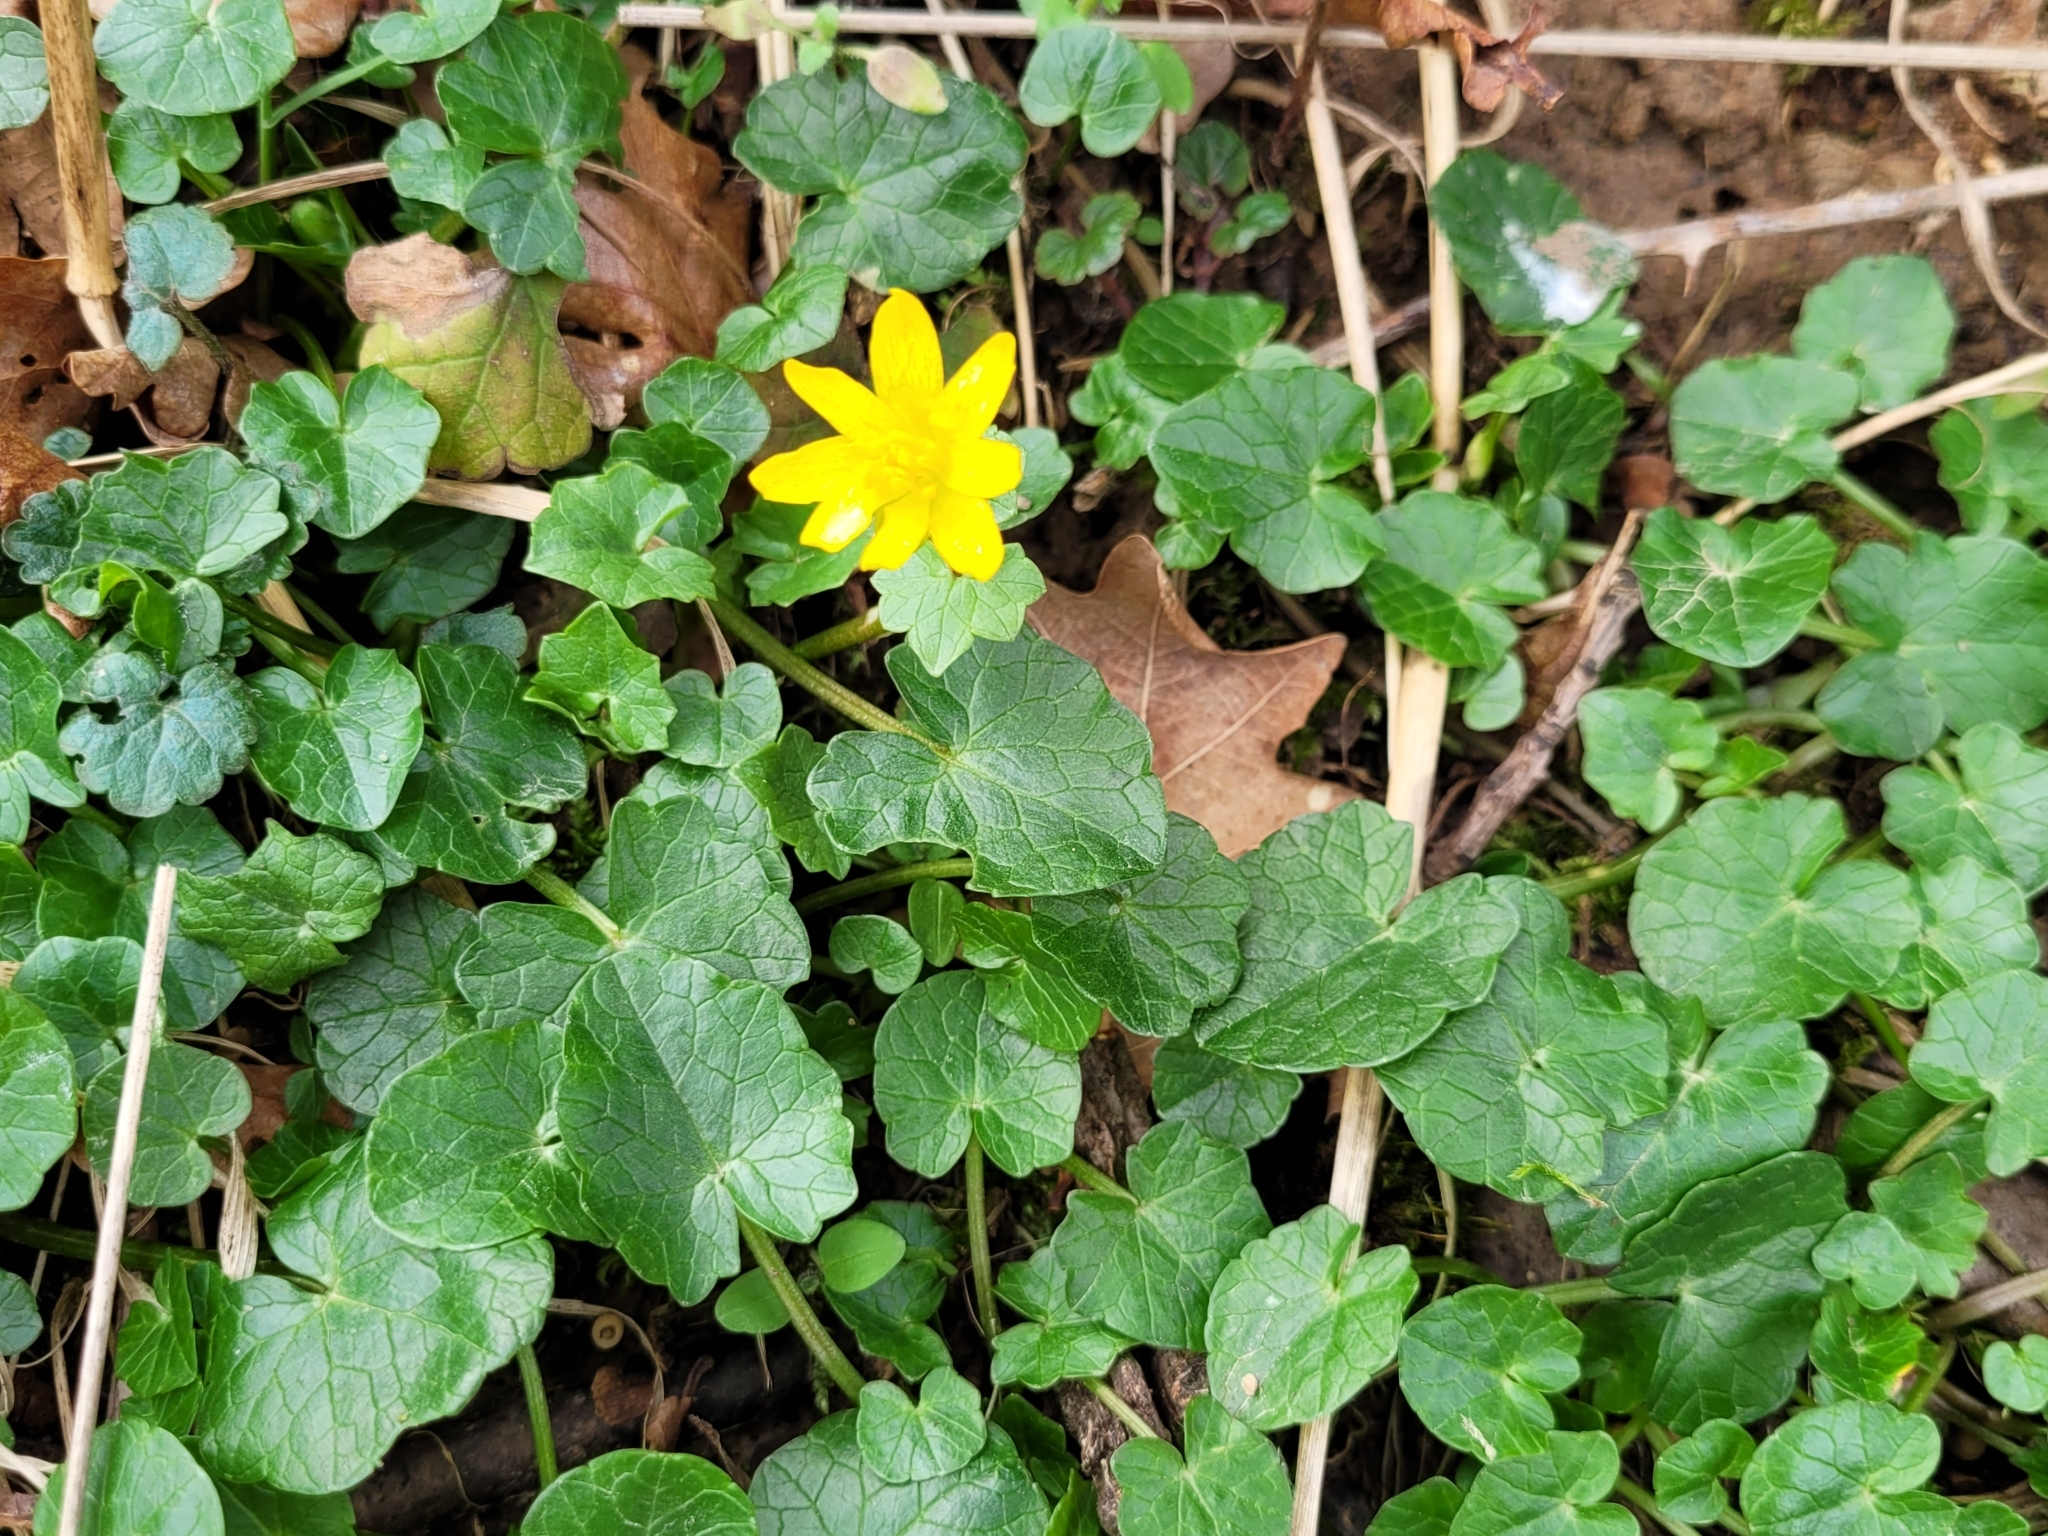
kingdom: Plantae
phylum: Tracheophyta
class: Magnoliopsida
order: Ranunculales
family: Ranunculaceae
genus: Ficaria
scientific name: Ficaria verna
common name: Lesser celandine
